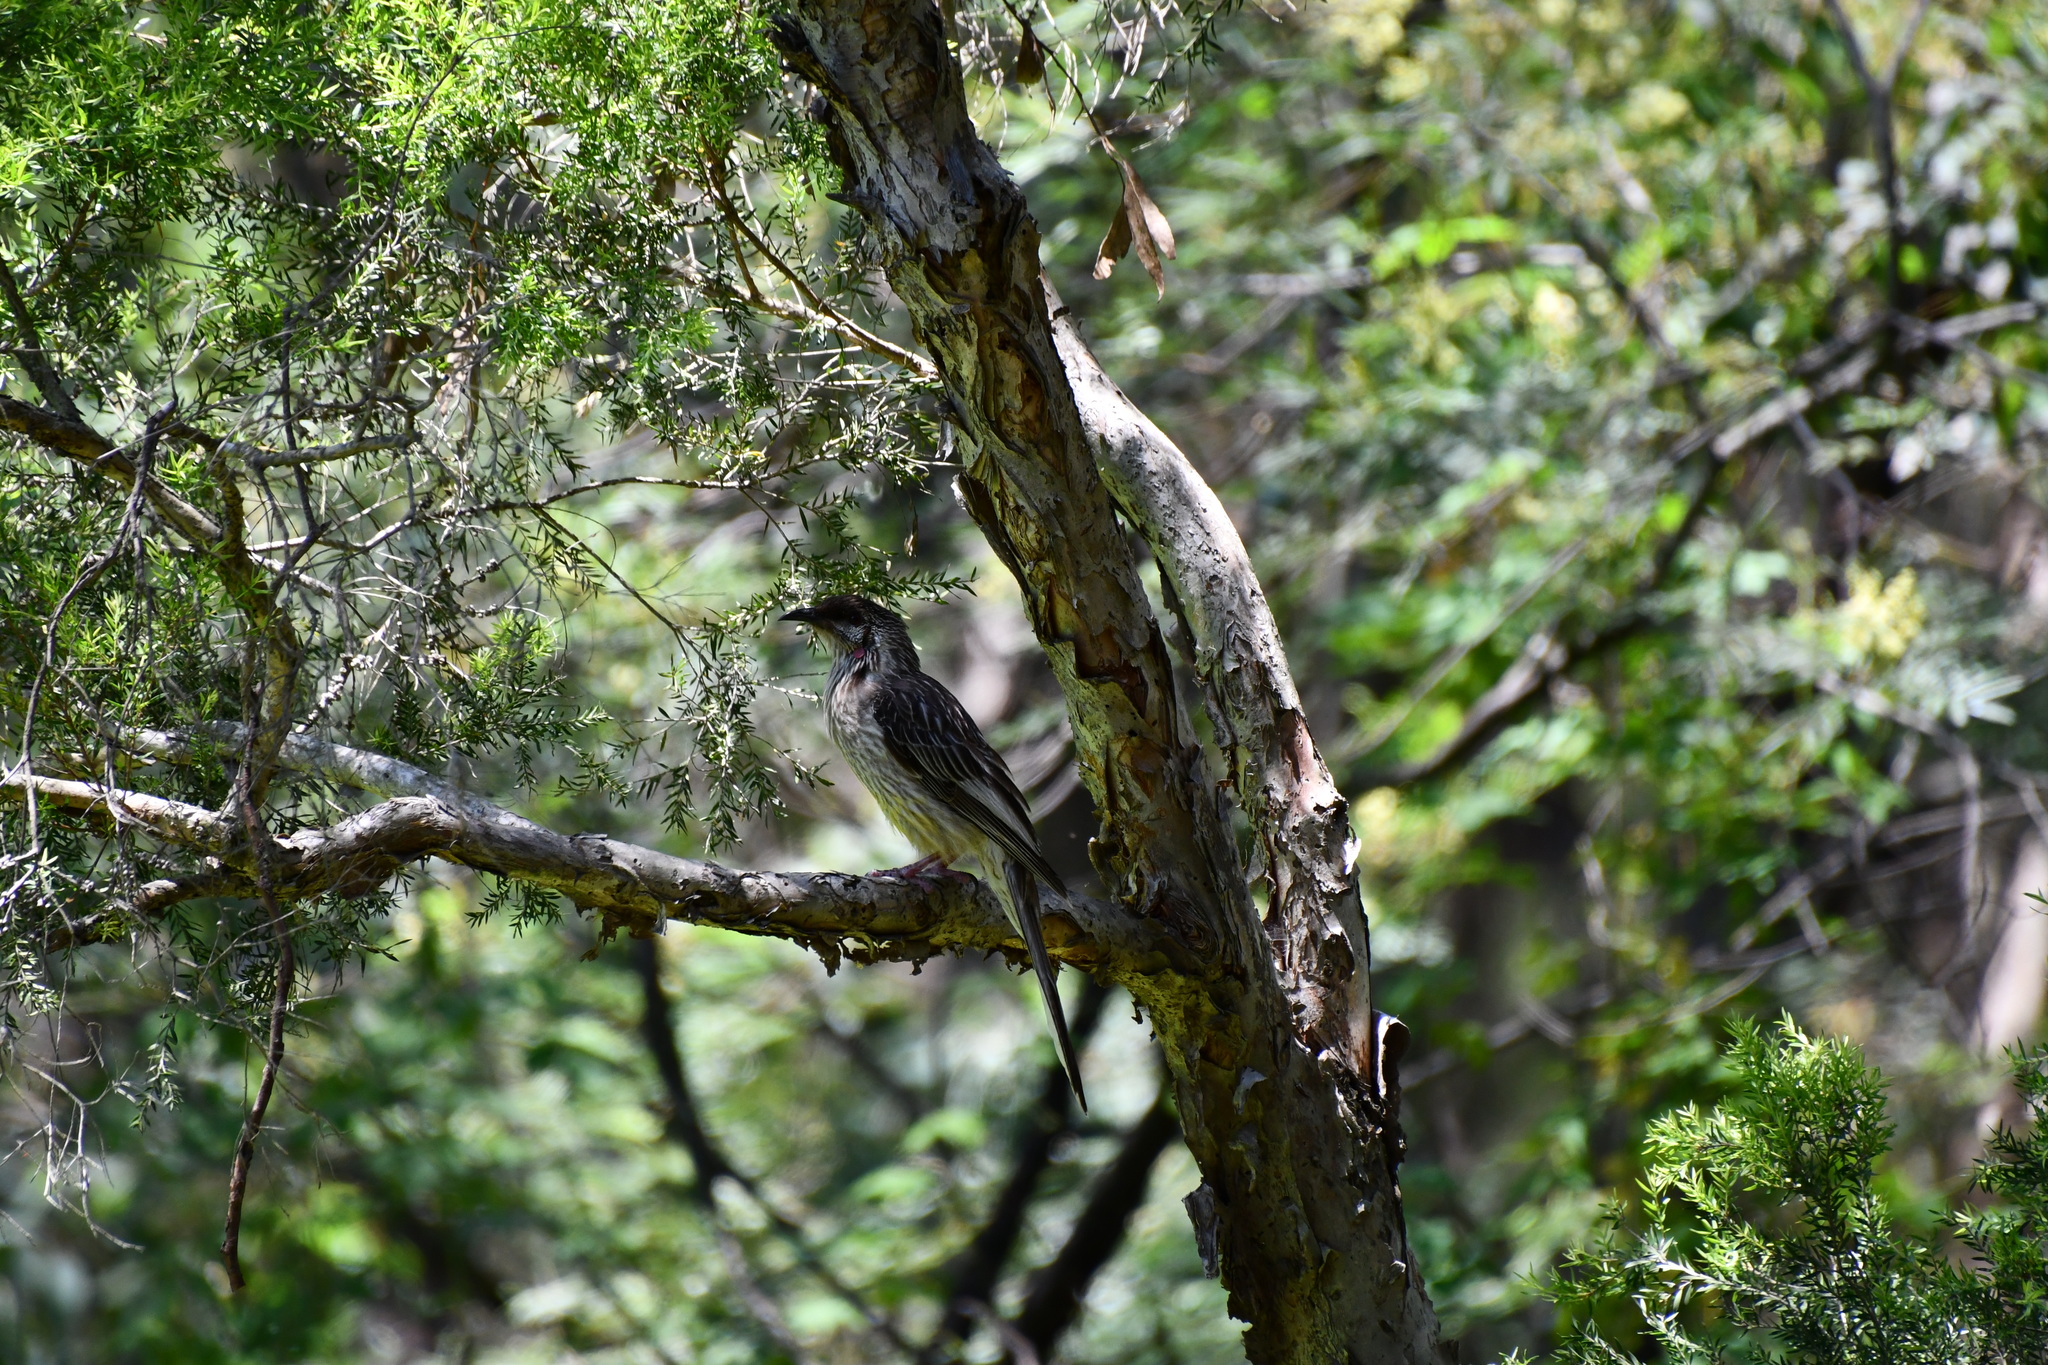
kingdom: Animalia
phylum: Chordata
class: Aves
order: Passeriformes
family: Meliphagidae
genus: Anthochaera
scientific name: Anthochaera carunculata
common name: Red wattlebird
